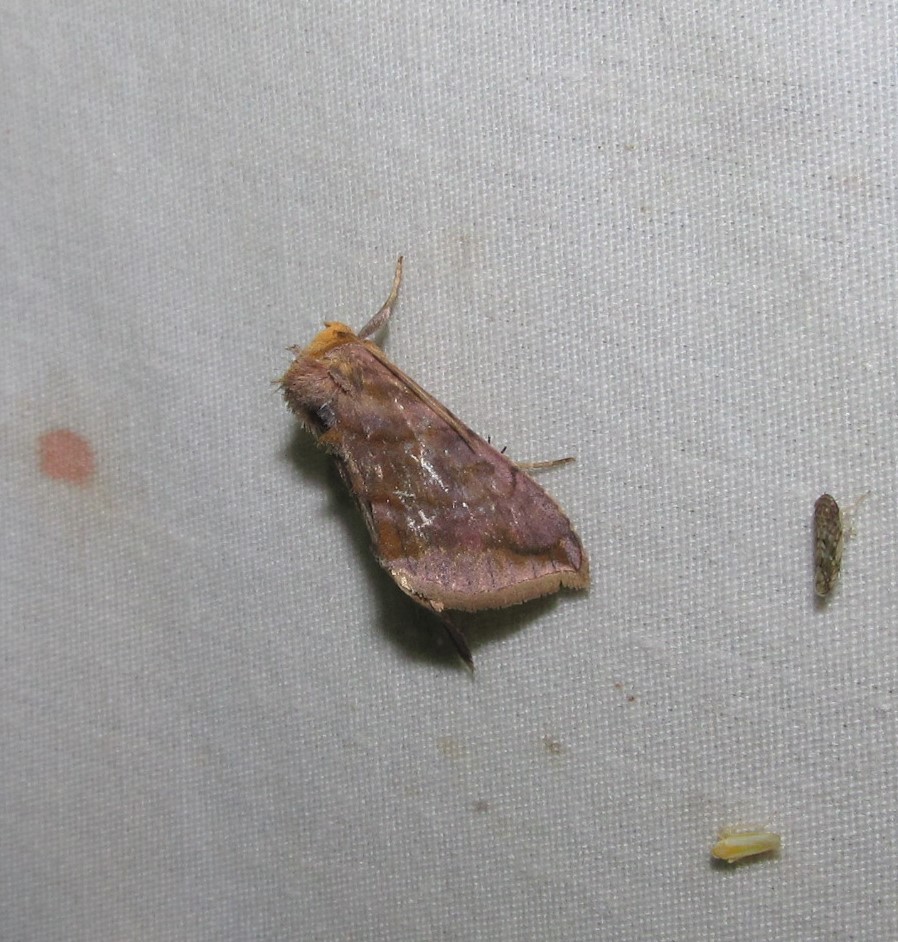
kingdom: Animalia
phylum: Arthropoda
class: Insecta
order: Lepidoptera
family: Noctuidae
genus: Allagrapha
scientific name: Allagrapha aerea
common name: Unspotted looper moth
